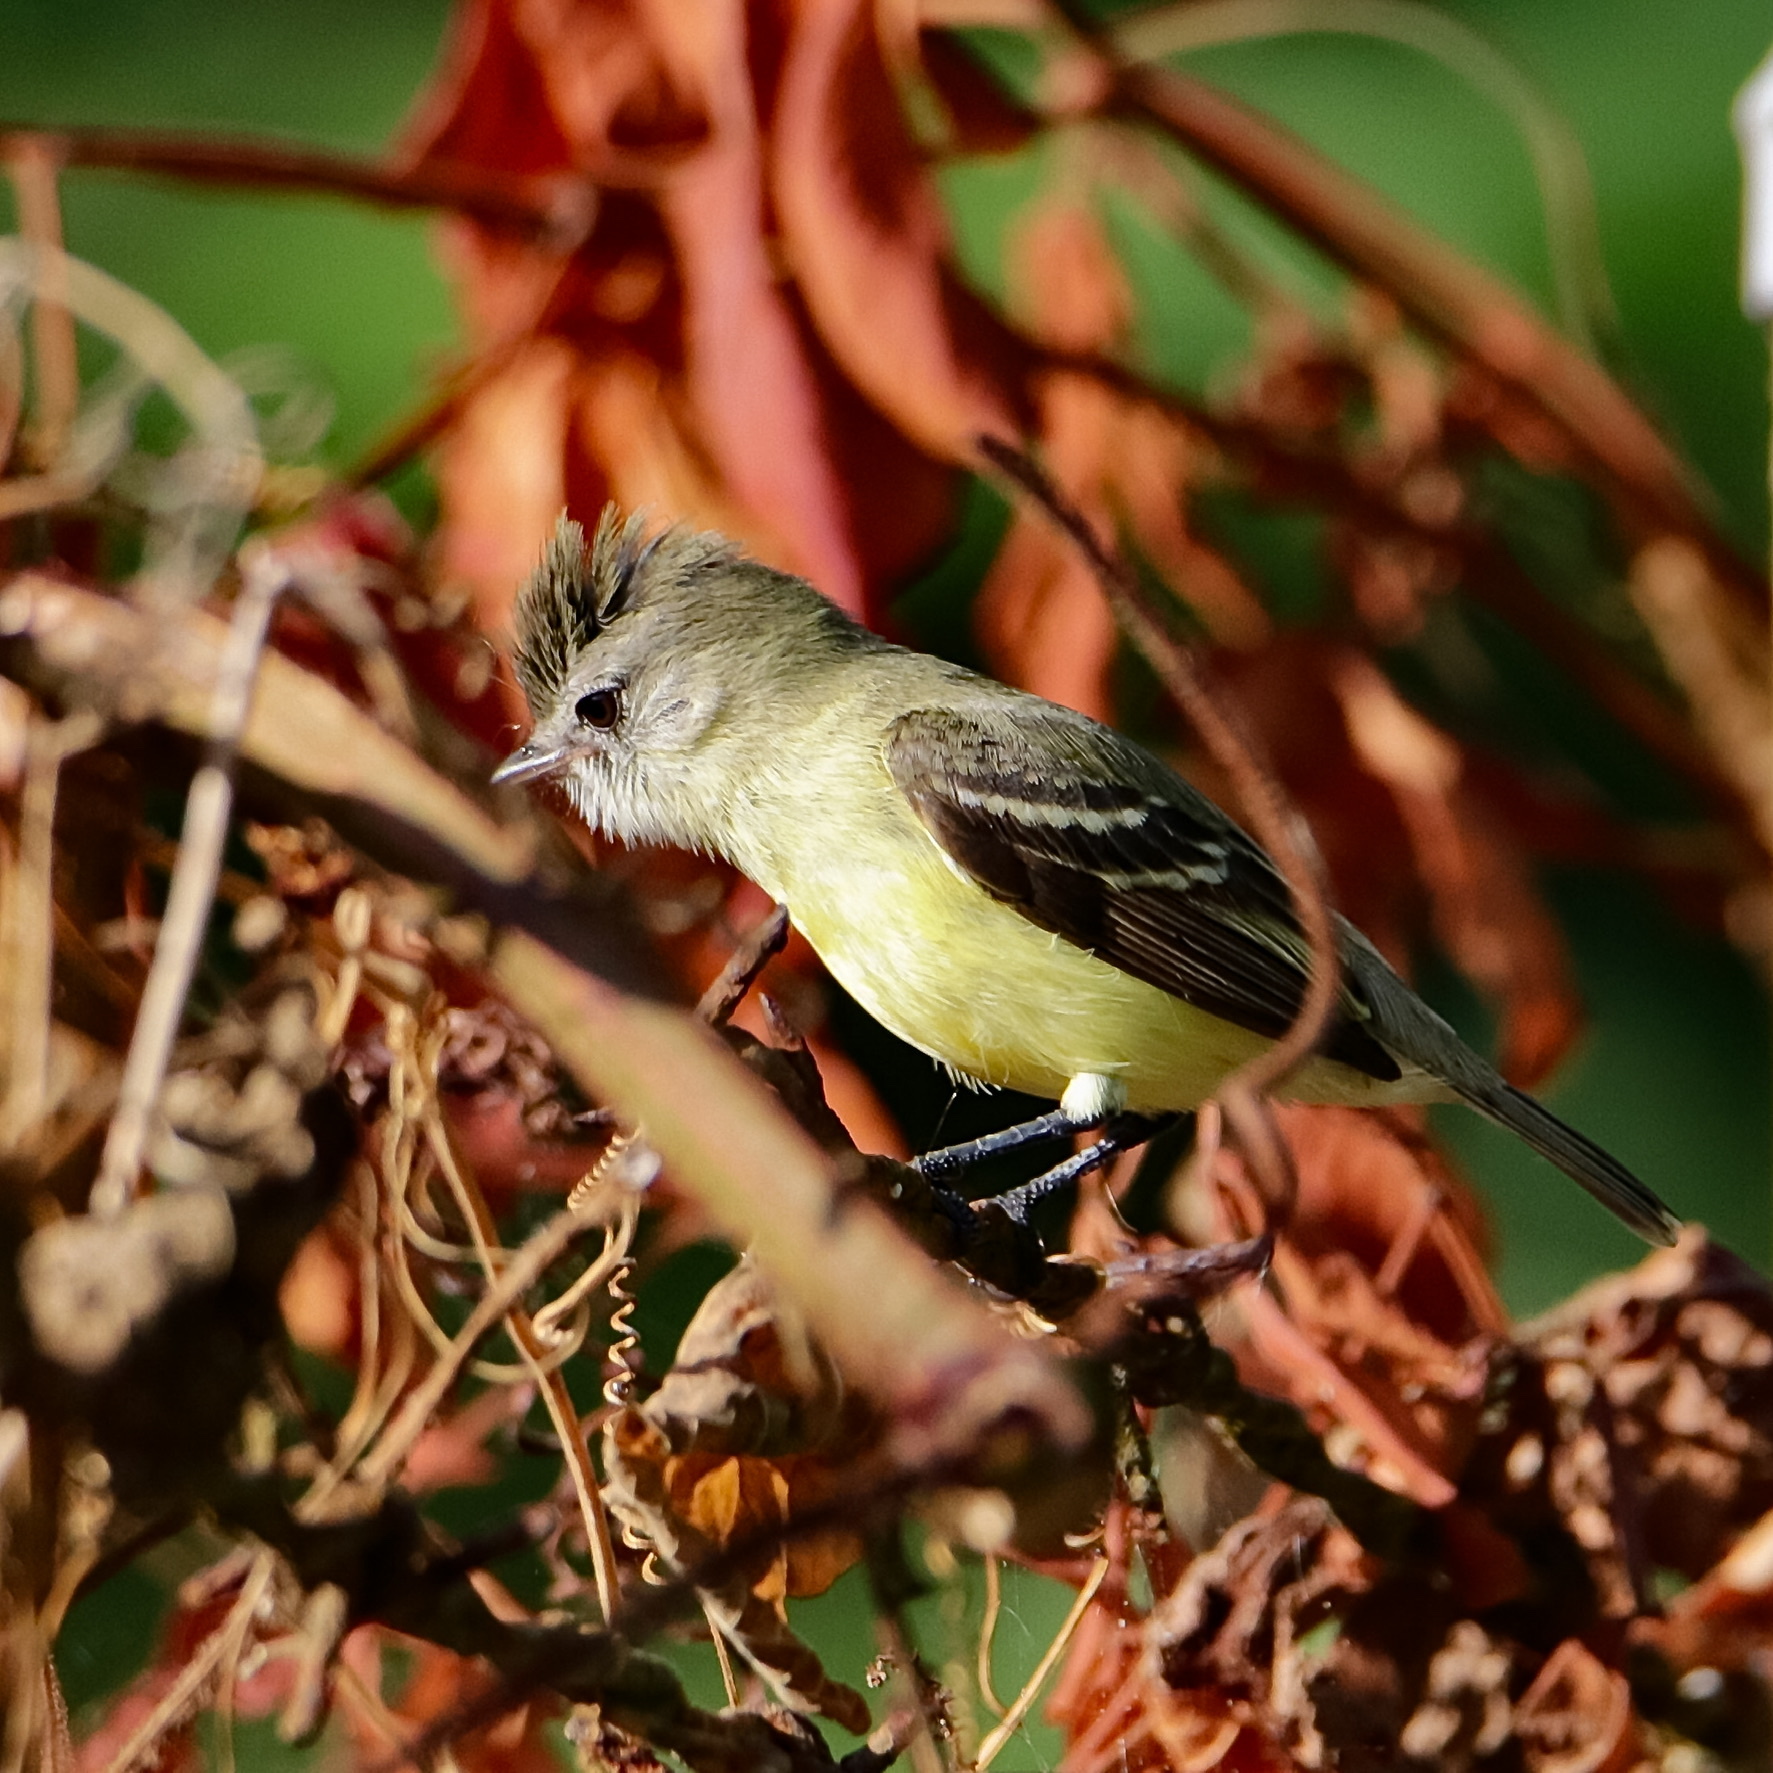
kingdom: Animalia
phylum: Chordata
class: Aves
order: Passeriformes
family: Tyrannidae
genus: Camptostoma
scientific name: Camptostoma obsoletum
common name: Southern beardless-tyrannulet
